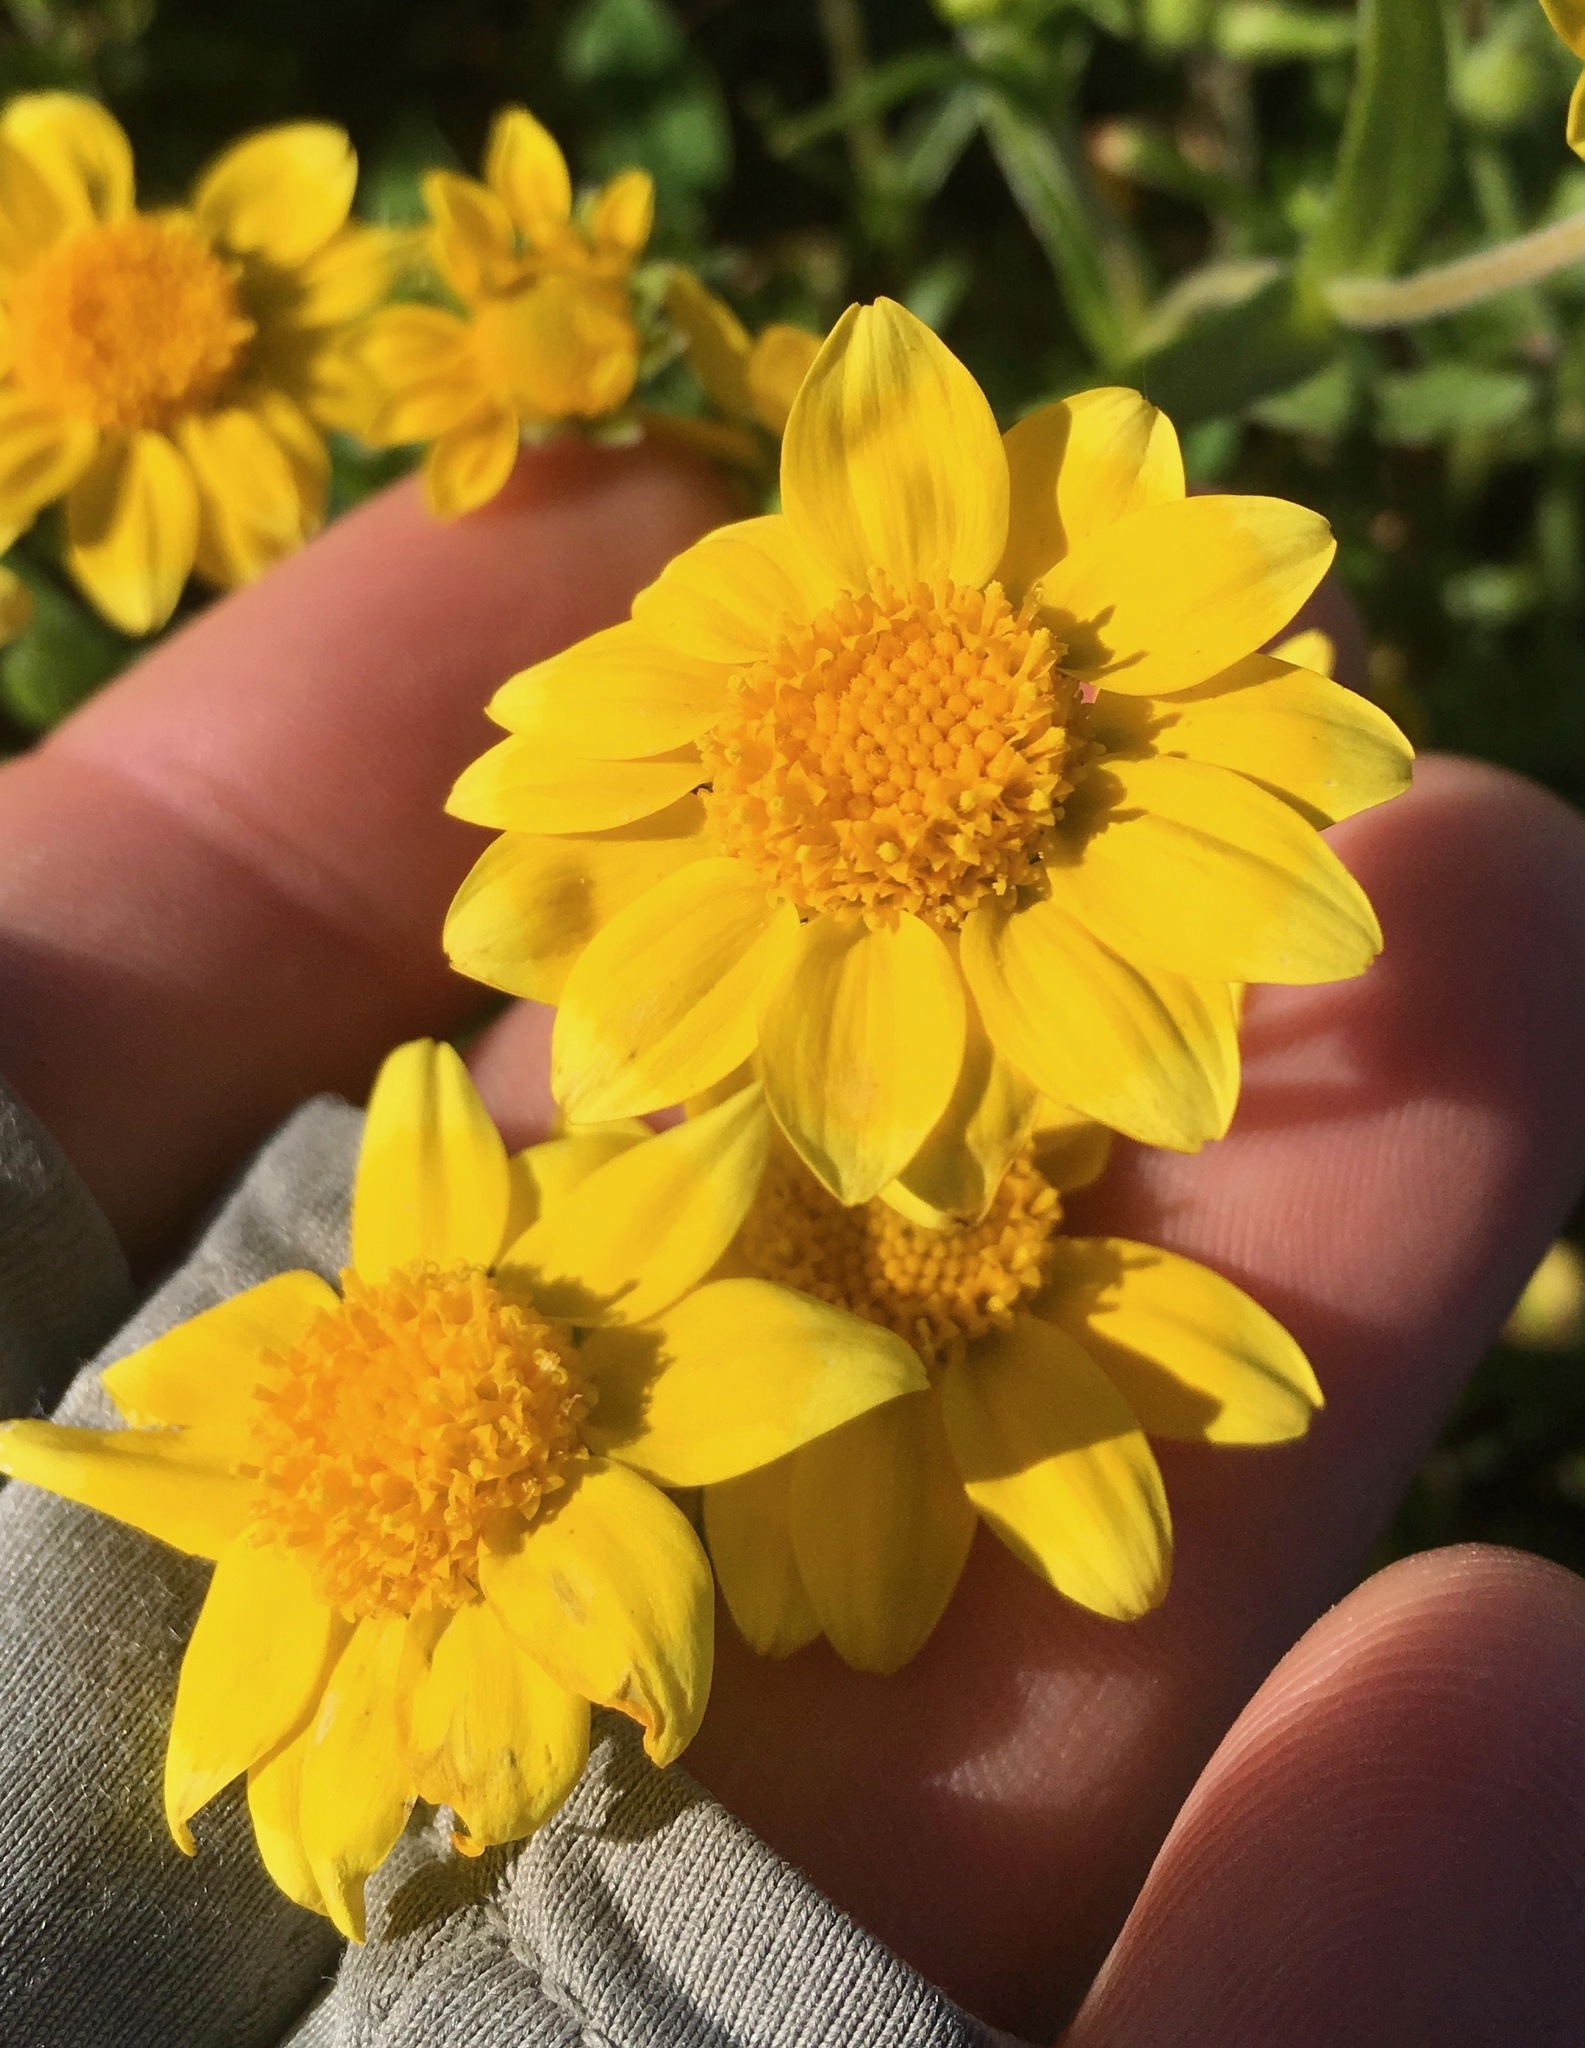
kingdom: Plantae
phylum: Tracheophyta
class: Magnoliopsida
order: Asterales
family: Asteraceae
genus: Lasthenia
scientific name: Lasthenia gracilis
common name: Common goldfields
